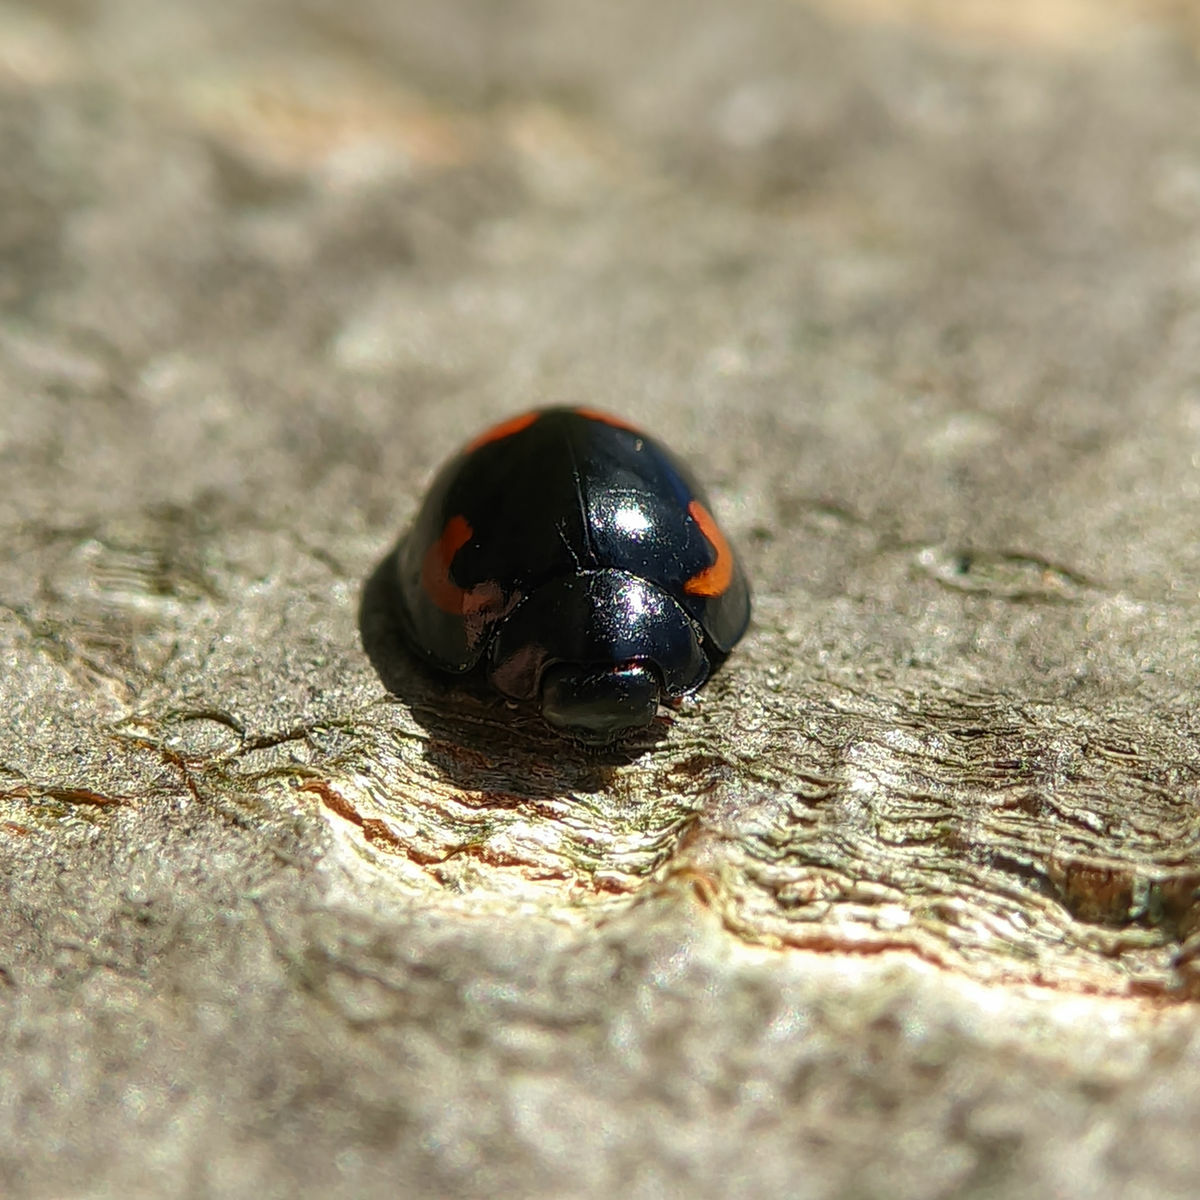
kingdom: Animalia
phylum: Arthropoda
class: Insecta
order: Coleoptera
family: Coccinellidae
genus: Brumus
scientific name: Brumus quadripustulatus
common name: Ladybird beetle
